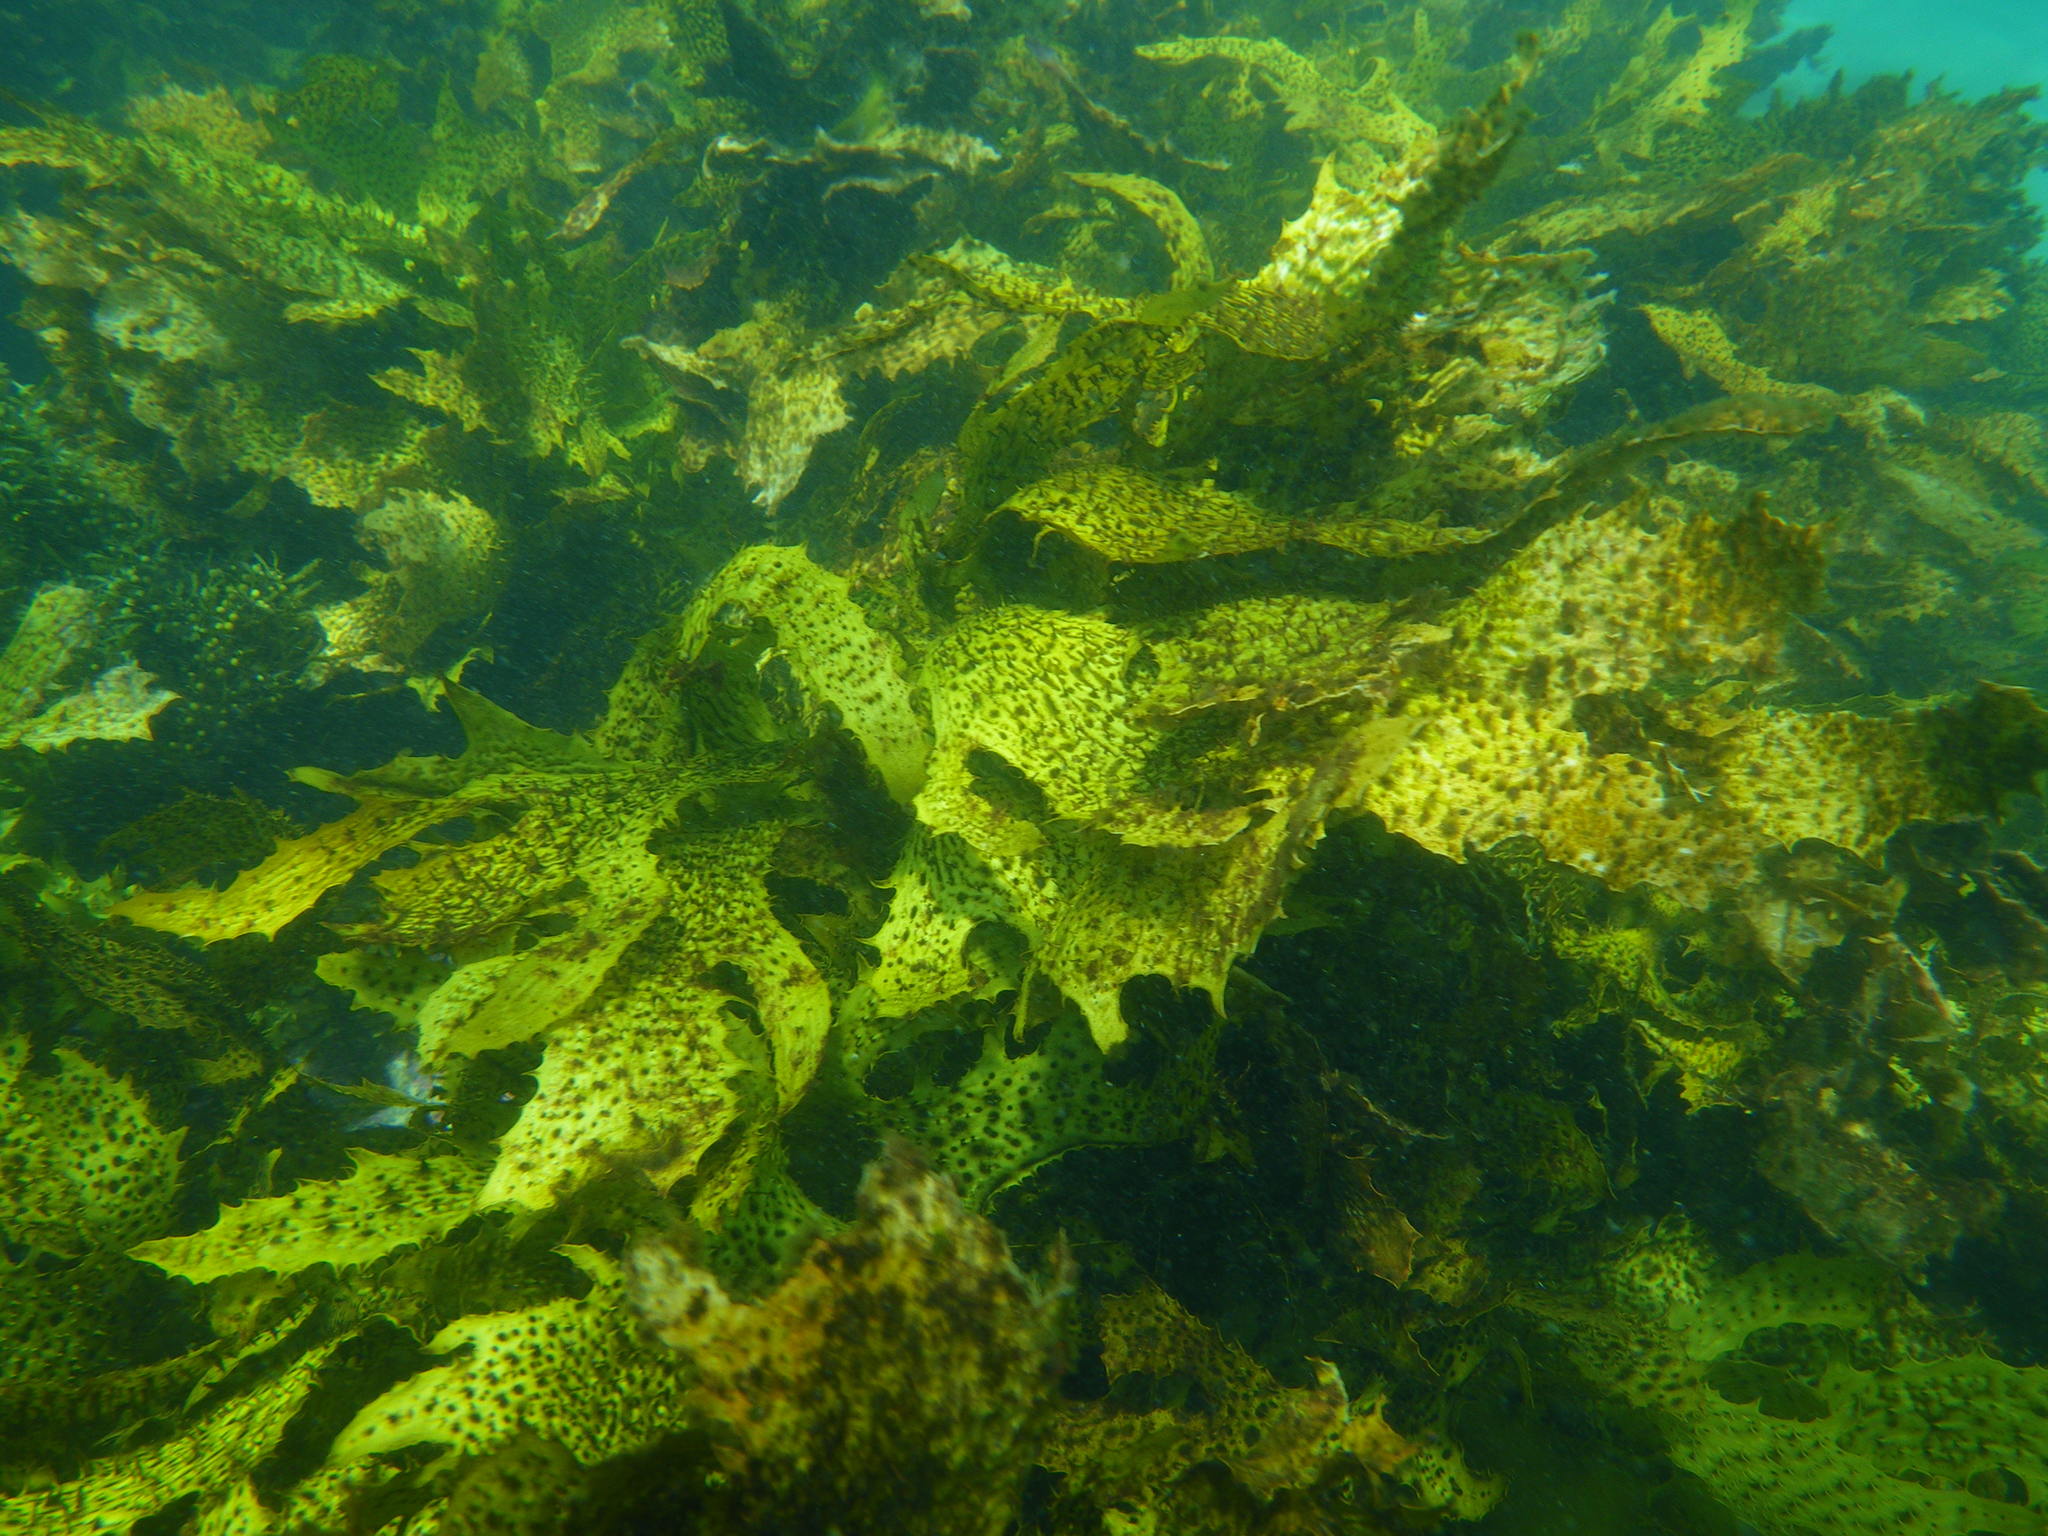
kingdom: Chromista
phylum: Ochrophyta
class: Phaeophyceae
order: Laminariales
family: Lessoniaceae
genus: Ecklonia
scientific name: Ecklonia radiata
